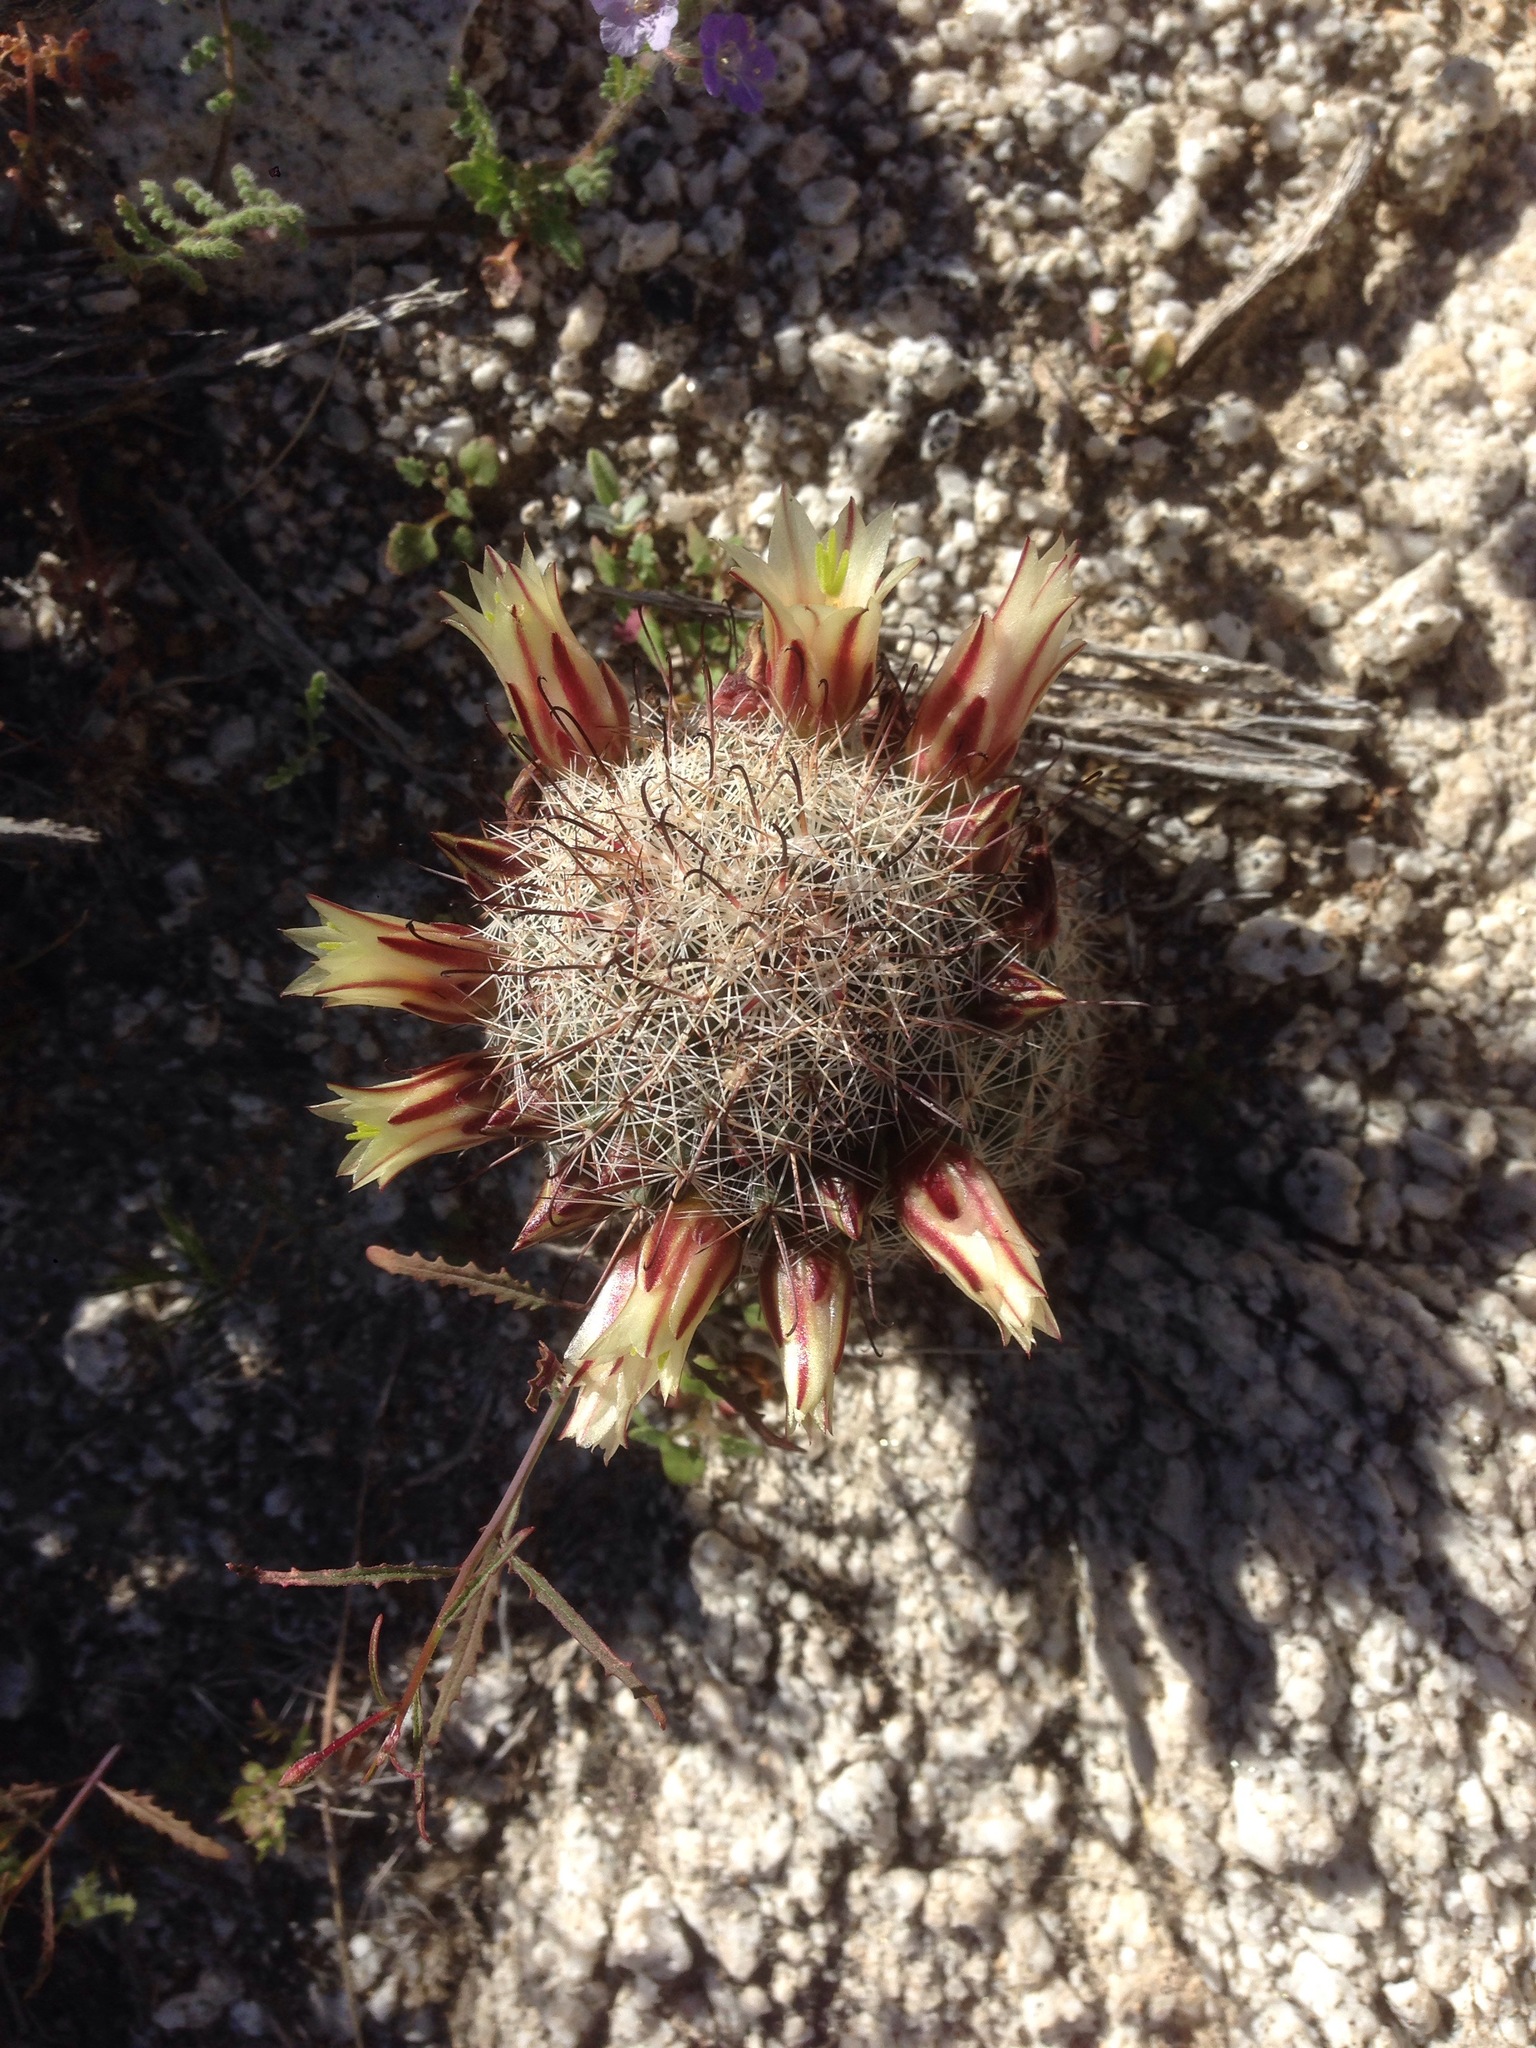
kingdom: Plantae
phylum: Tracheophyta
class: Magnoliopsida
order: Caryophyllales
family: Cactaceae
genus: Cochemiea
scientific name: Cochemiea dioica
